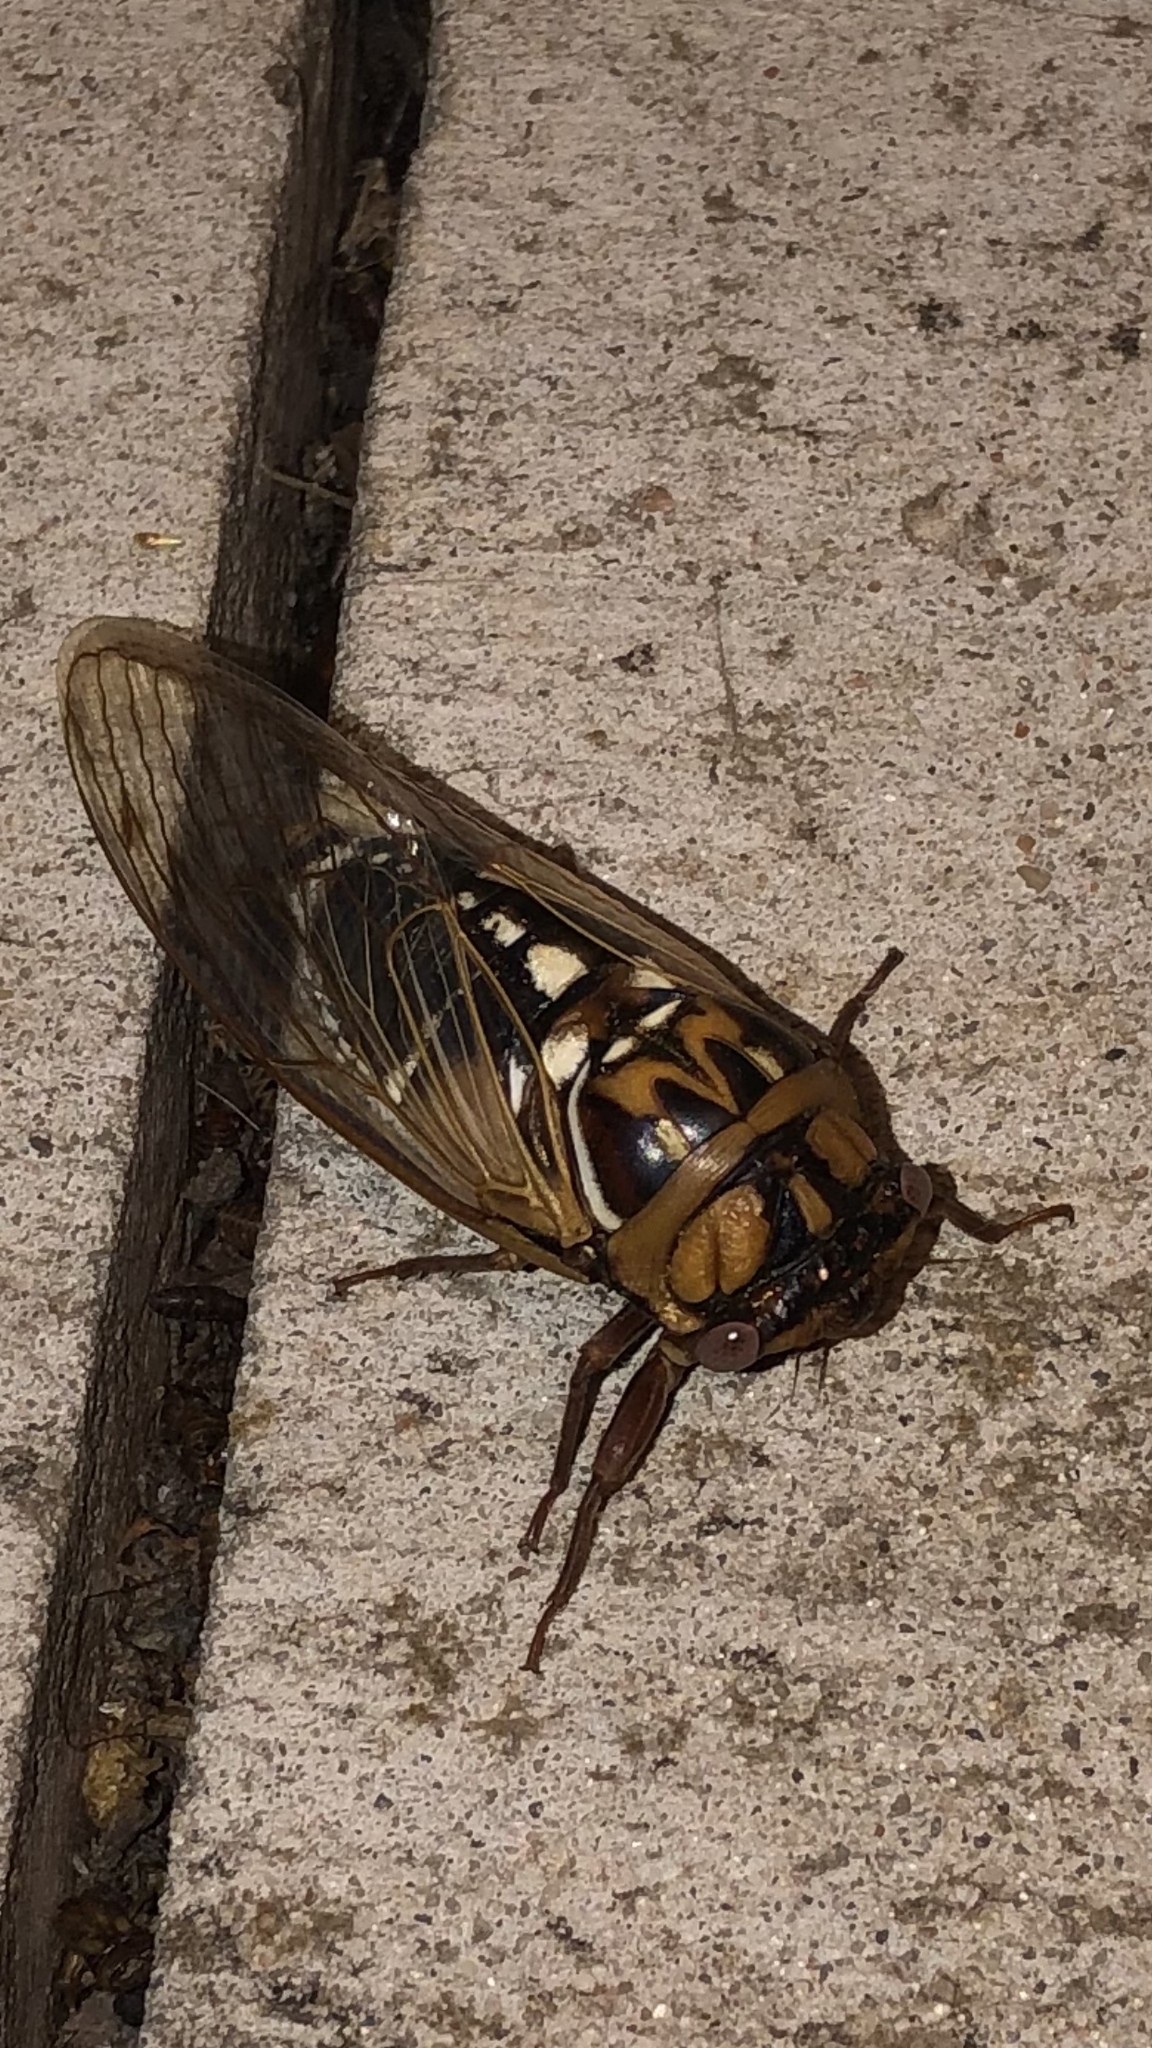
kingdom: Animalia
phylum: Arthropoda
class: Insecta
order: Hemiptera
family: Cicadidae
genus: Megatibicen
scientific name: Megatibicen dorsatus
